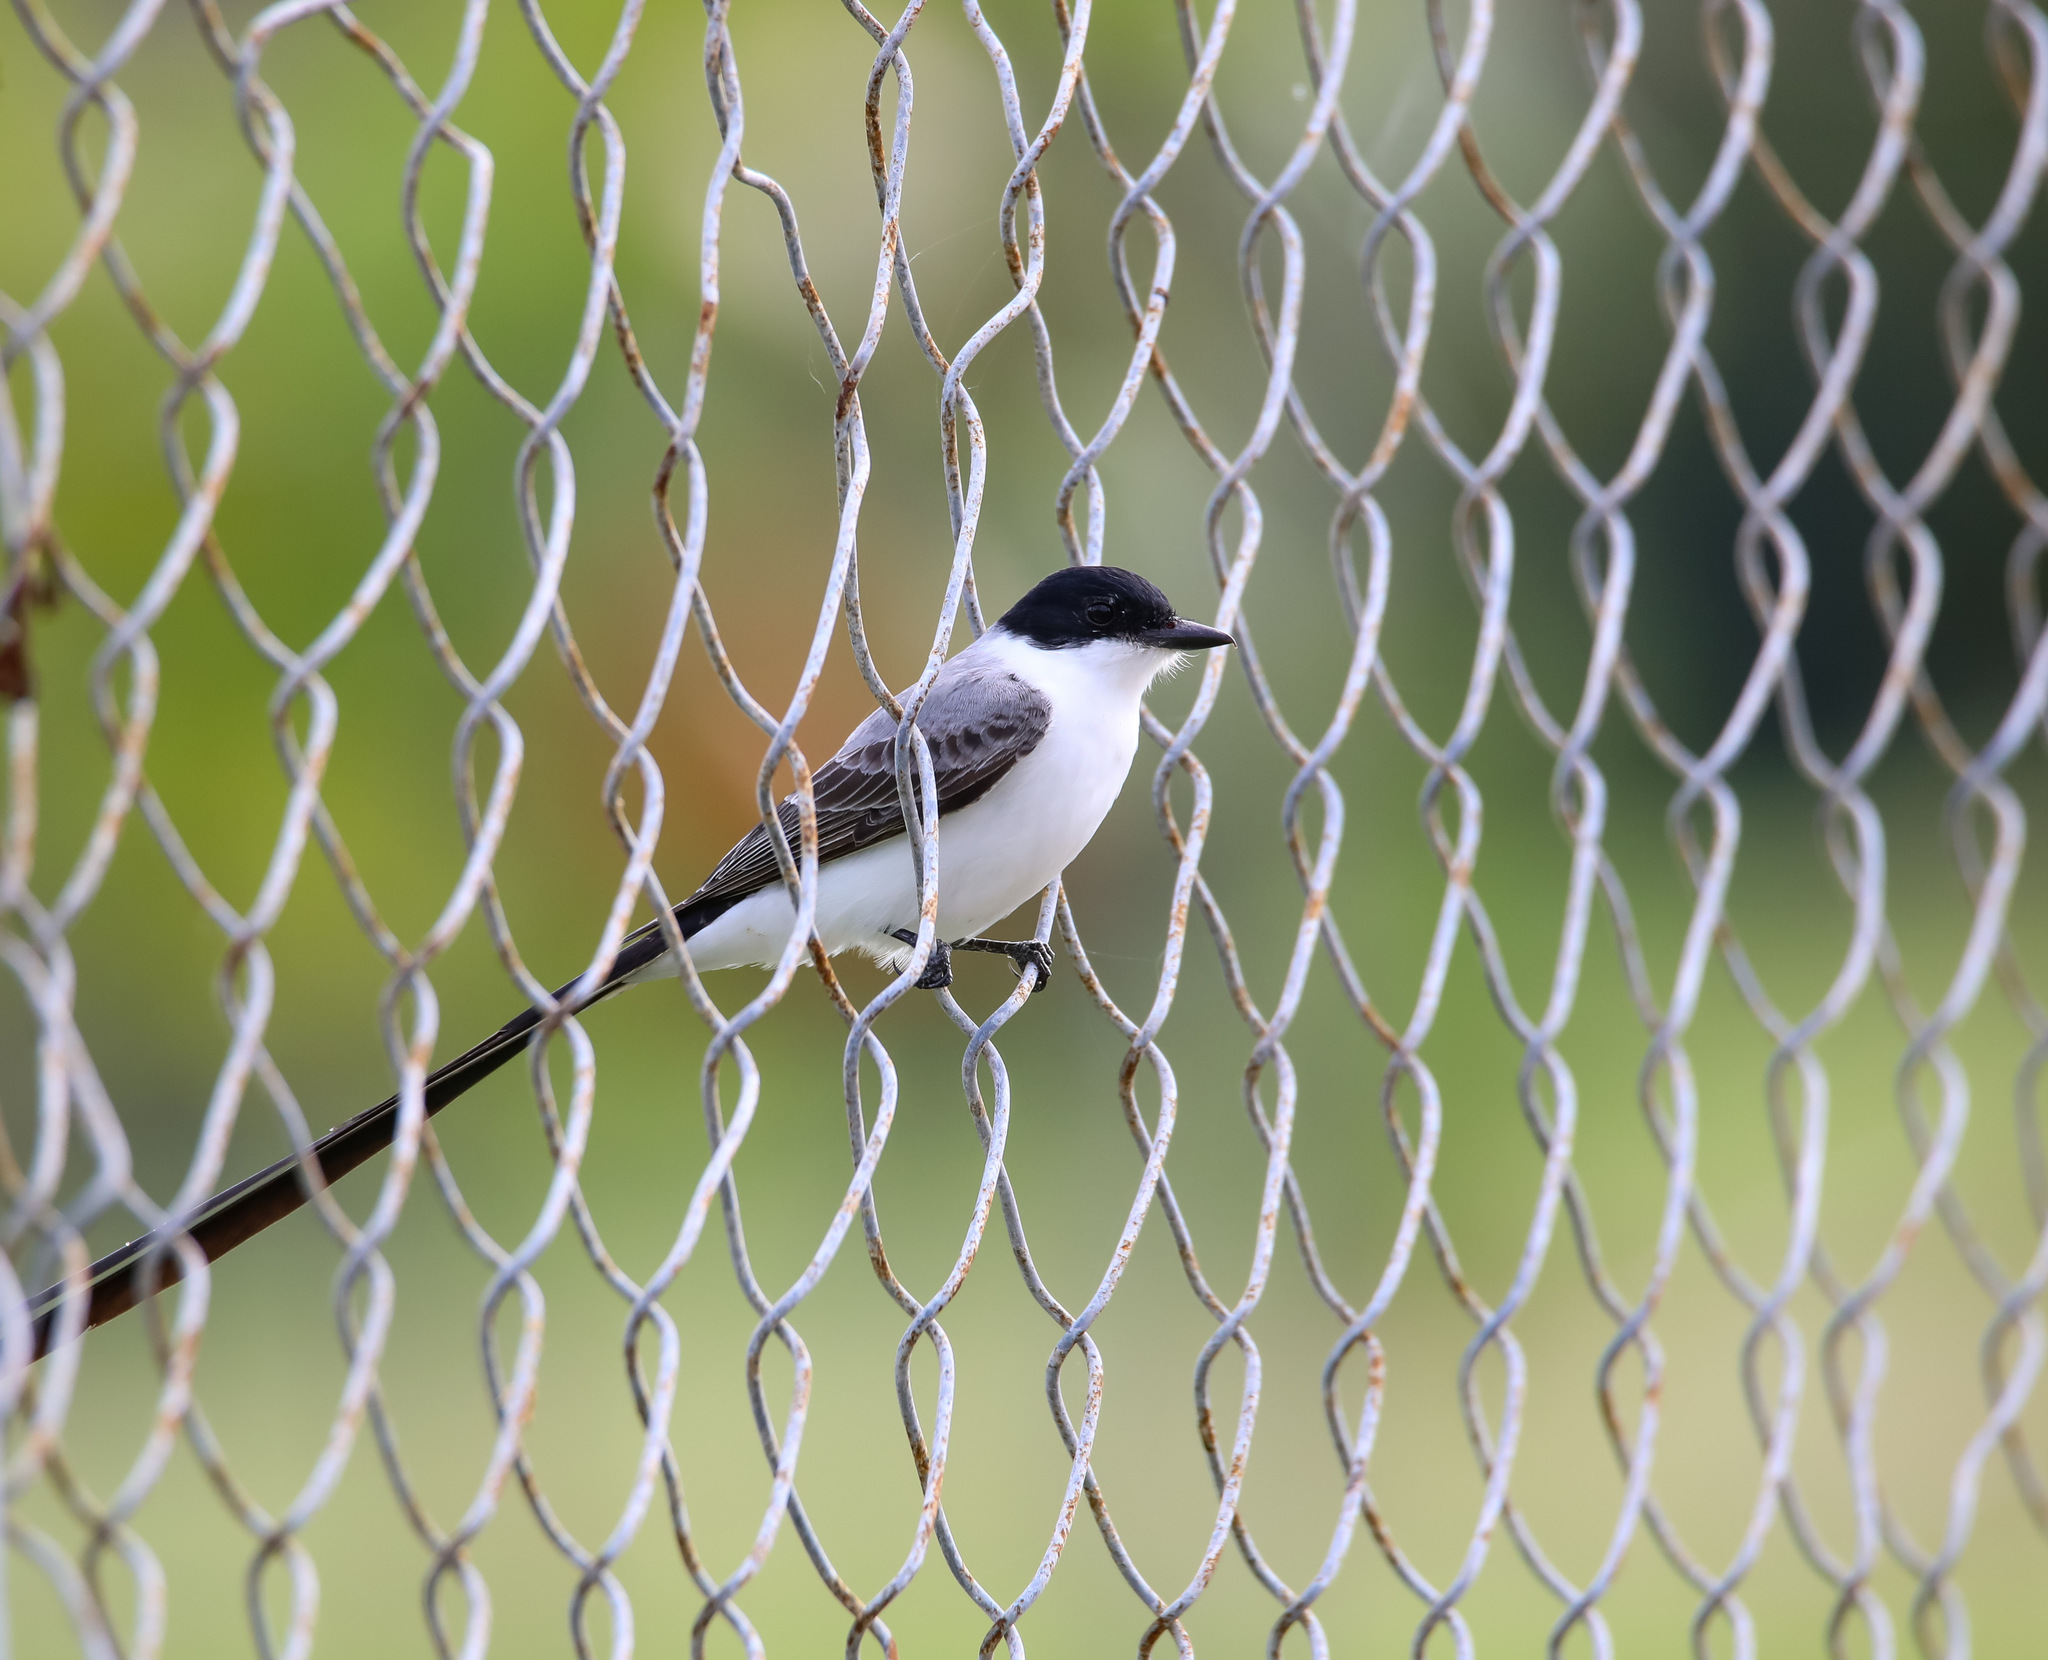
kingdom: Animalia
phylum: Chordata
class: Aves
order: Passeriformes
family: Tyrannidae
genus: Tyrannus
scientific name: Tyrannus savana
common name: Fork-tailed flycatcher
